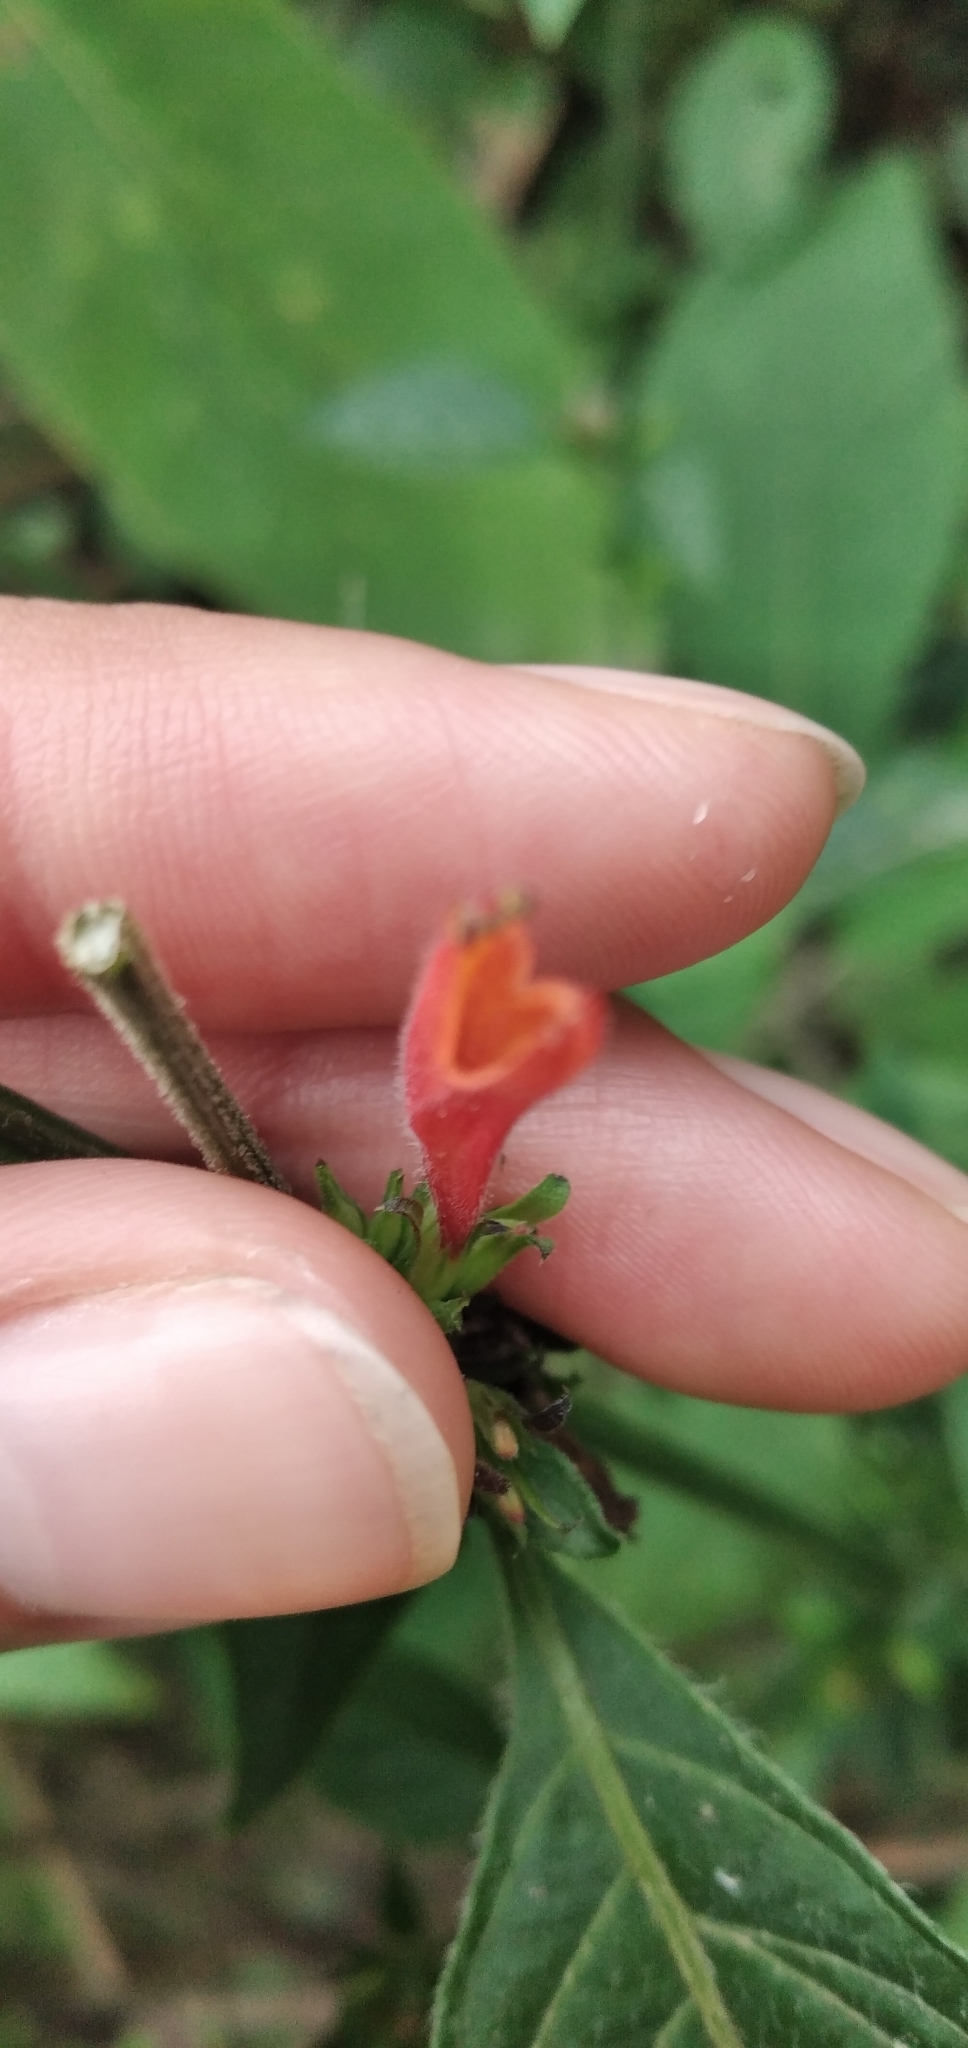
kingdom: Plantae
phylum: Tracheophyta
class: Magnoliopsida
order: Lamiales
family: Acanthaceae
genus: Dicliptera
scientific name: Dicliptera squarrosa
